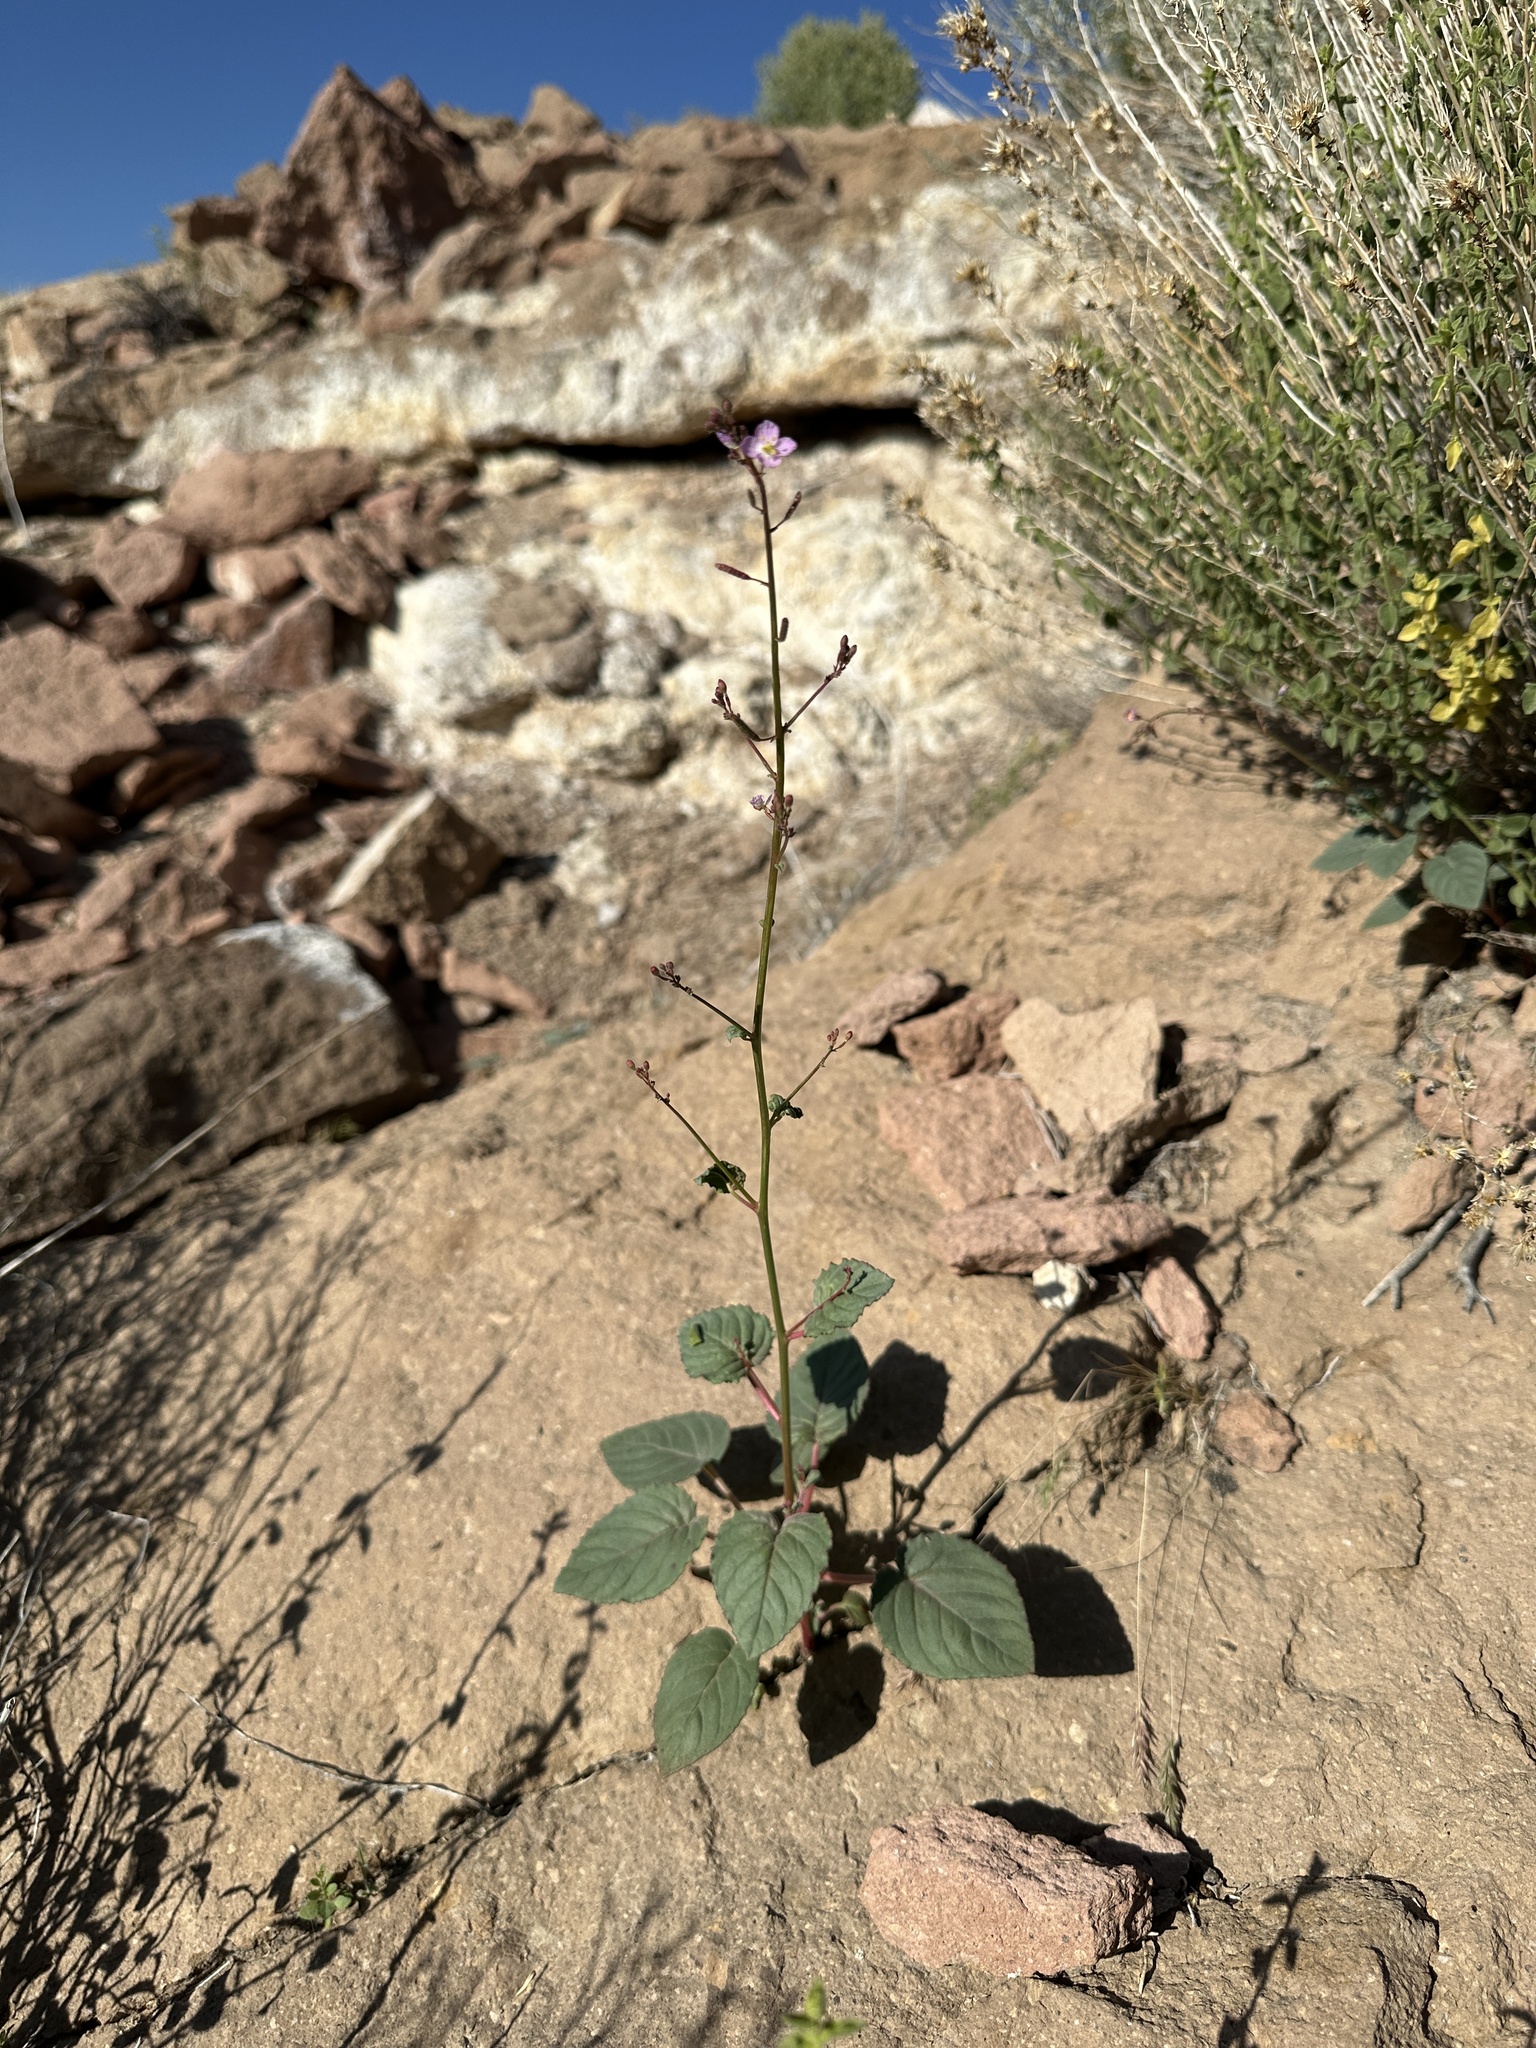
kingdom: Plantae
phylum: Tracheophyta
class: Magnoliopsida
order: Myrtales
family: Onagraceae
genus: Chylismia
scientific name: Chylismia heterochroma
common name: Shockley's evening primrose
